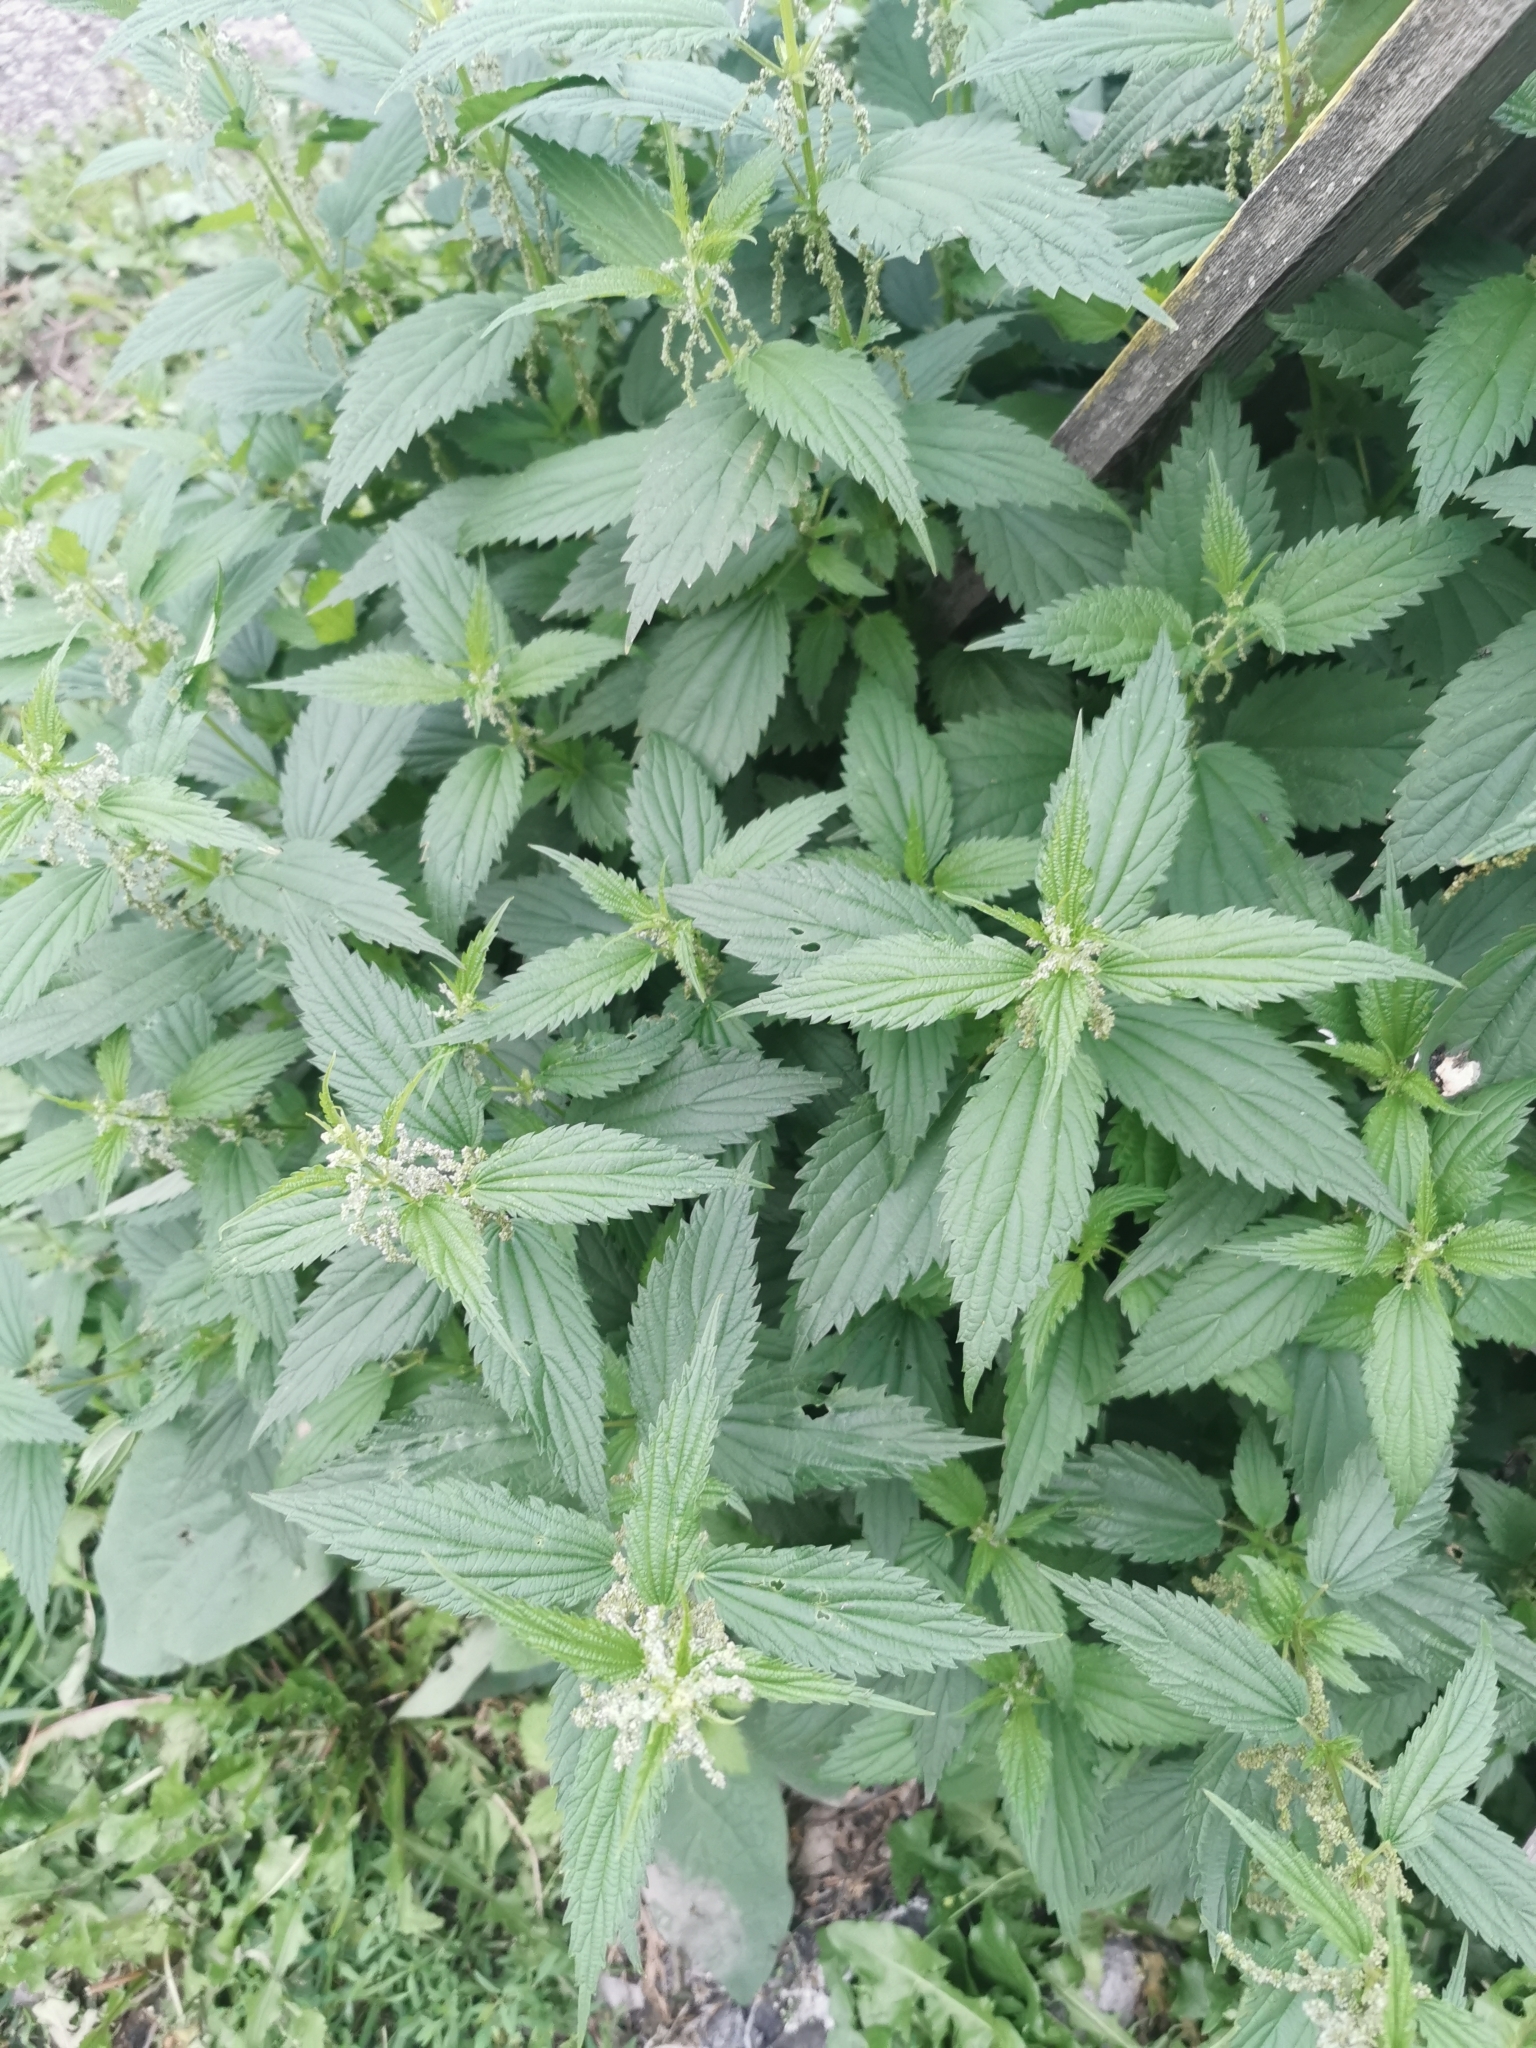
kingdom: Plantae
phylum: Tracheophyta
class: Magnoliopsida
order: Rosales
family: Urticaceae
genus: Urtica
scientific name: Urtica dioica
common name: Common nettle
